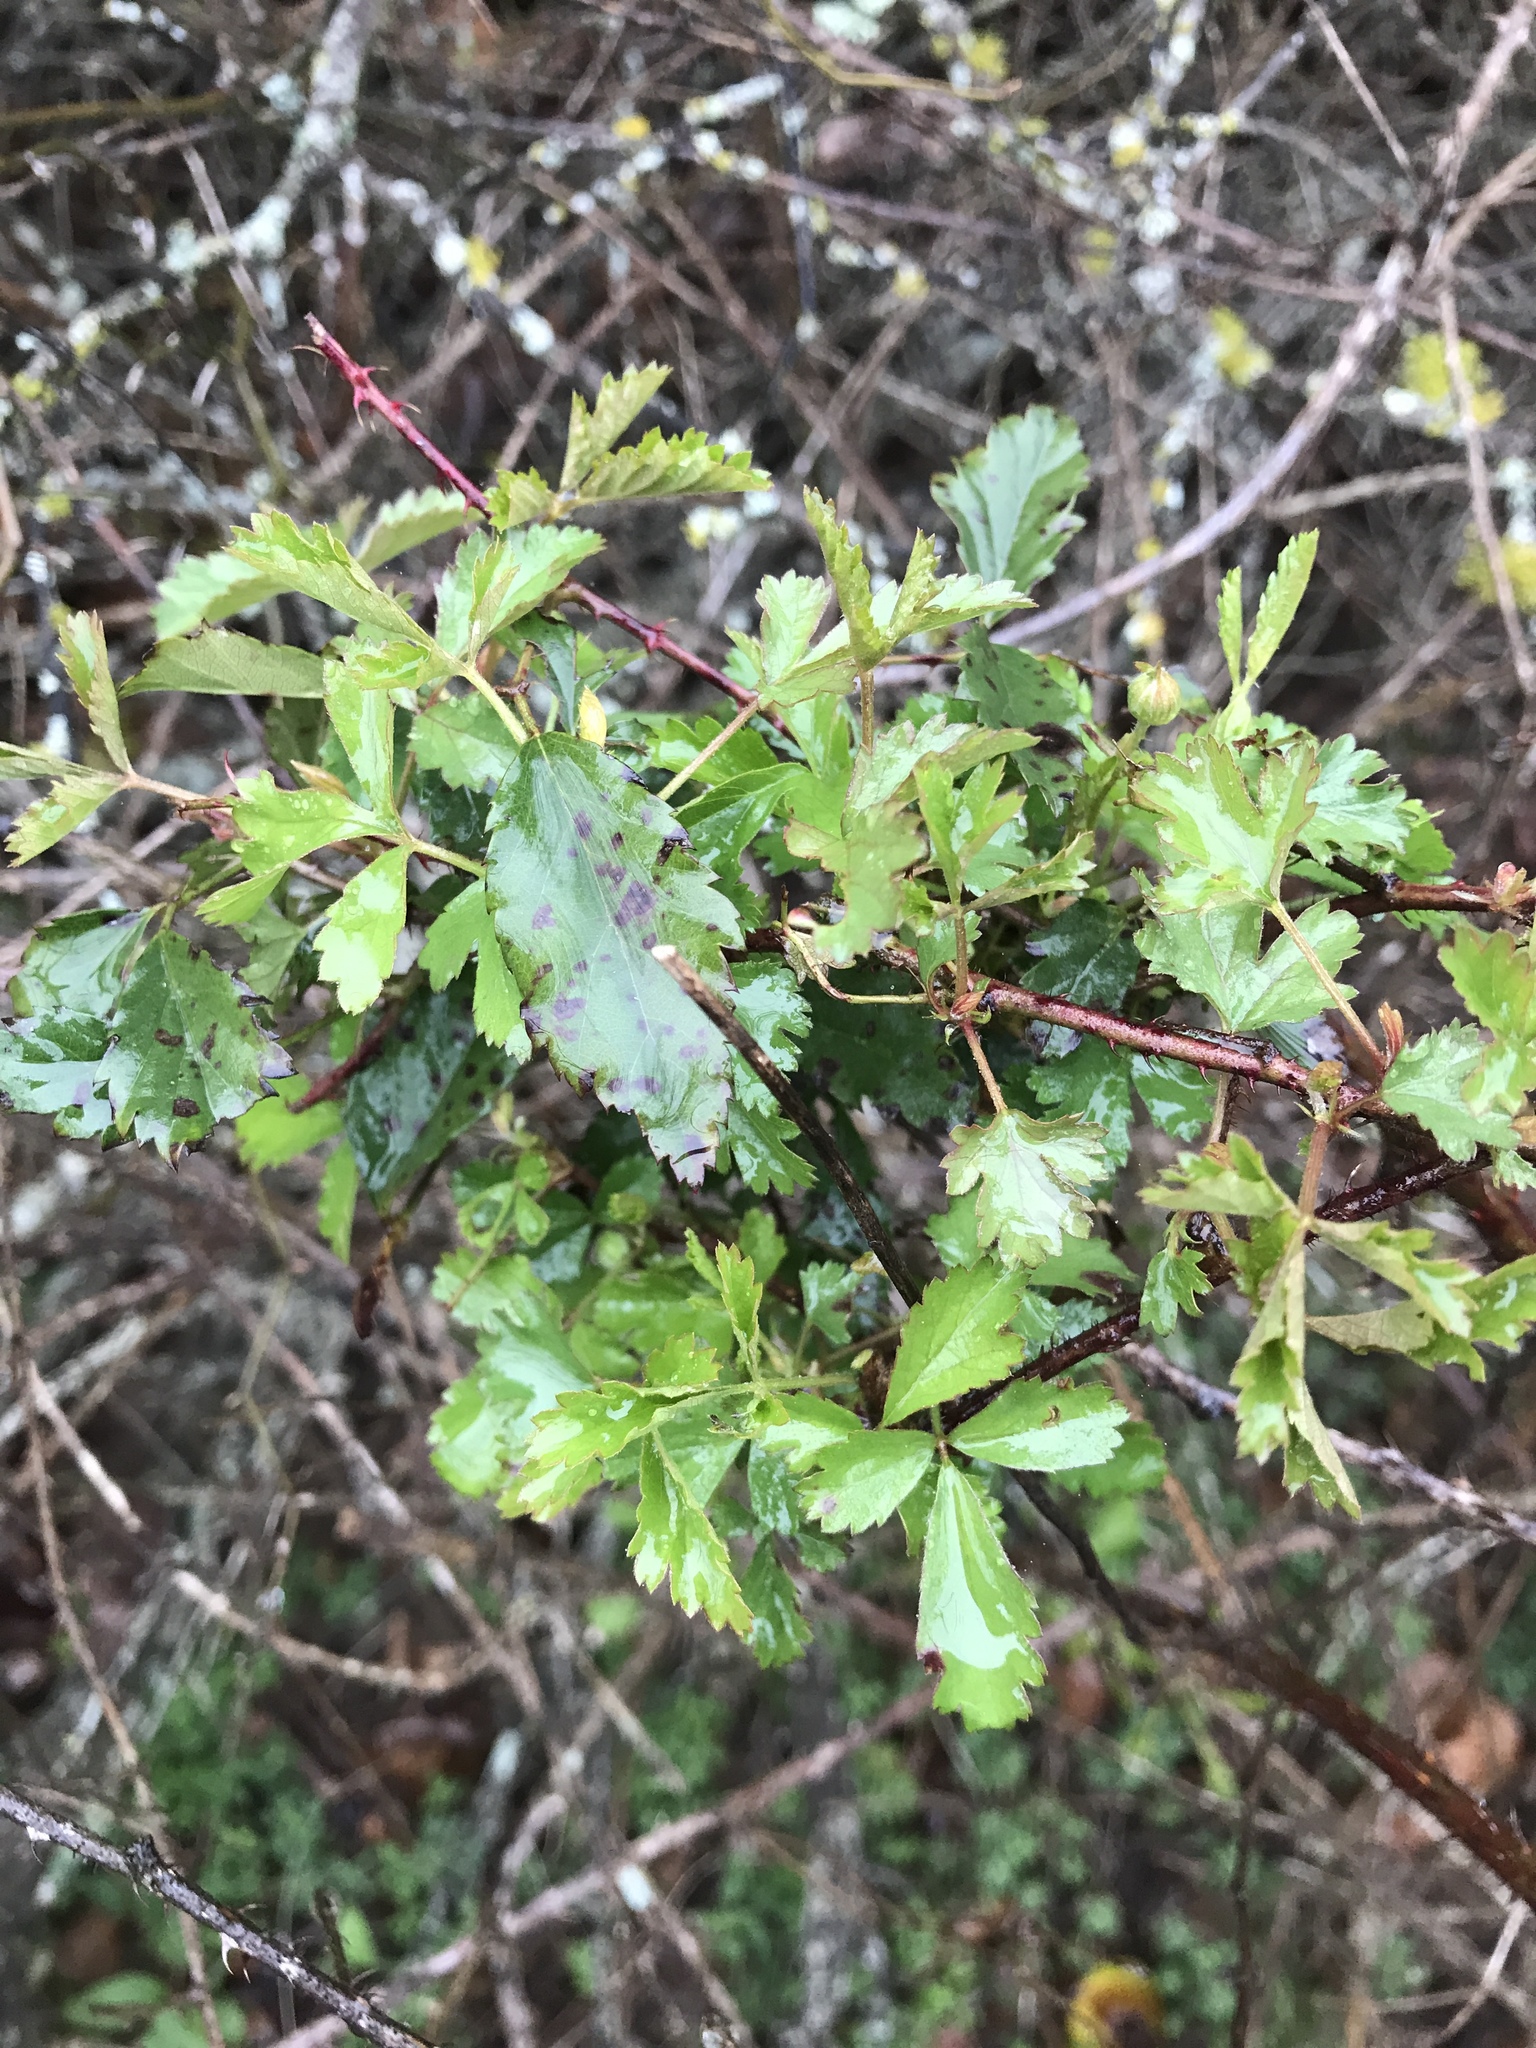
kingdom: Plantae
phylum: Tracheophyta
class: Magnoliopsida
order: Rosales
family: Rosaceae
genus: Rubus
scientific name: Rubus trivialis
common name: Southern dewberry
